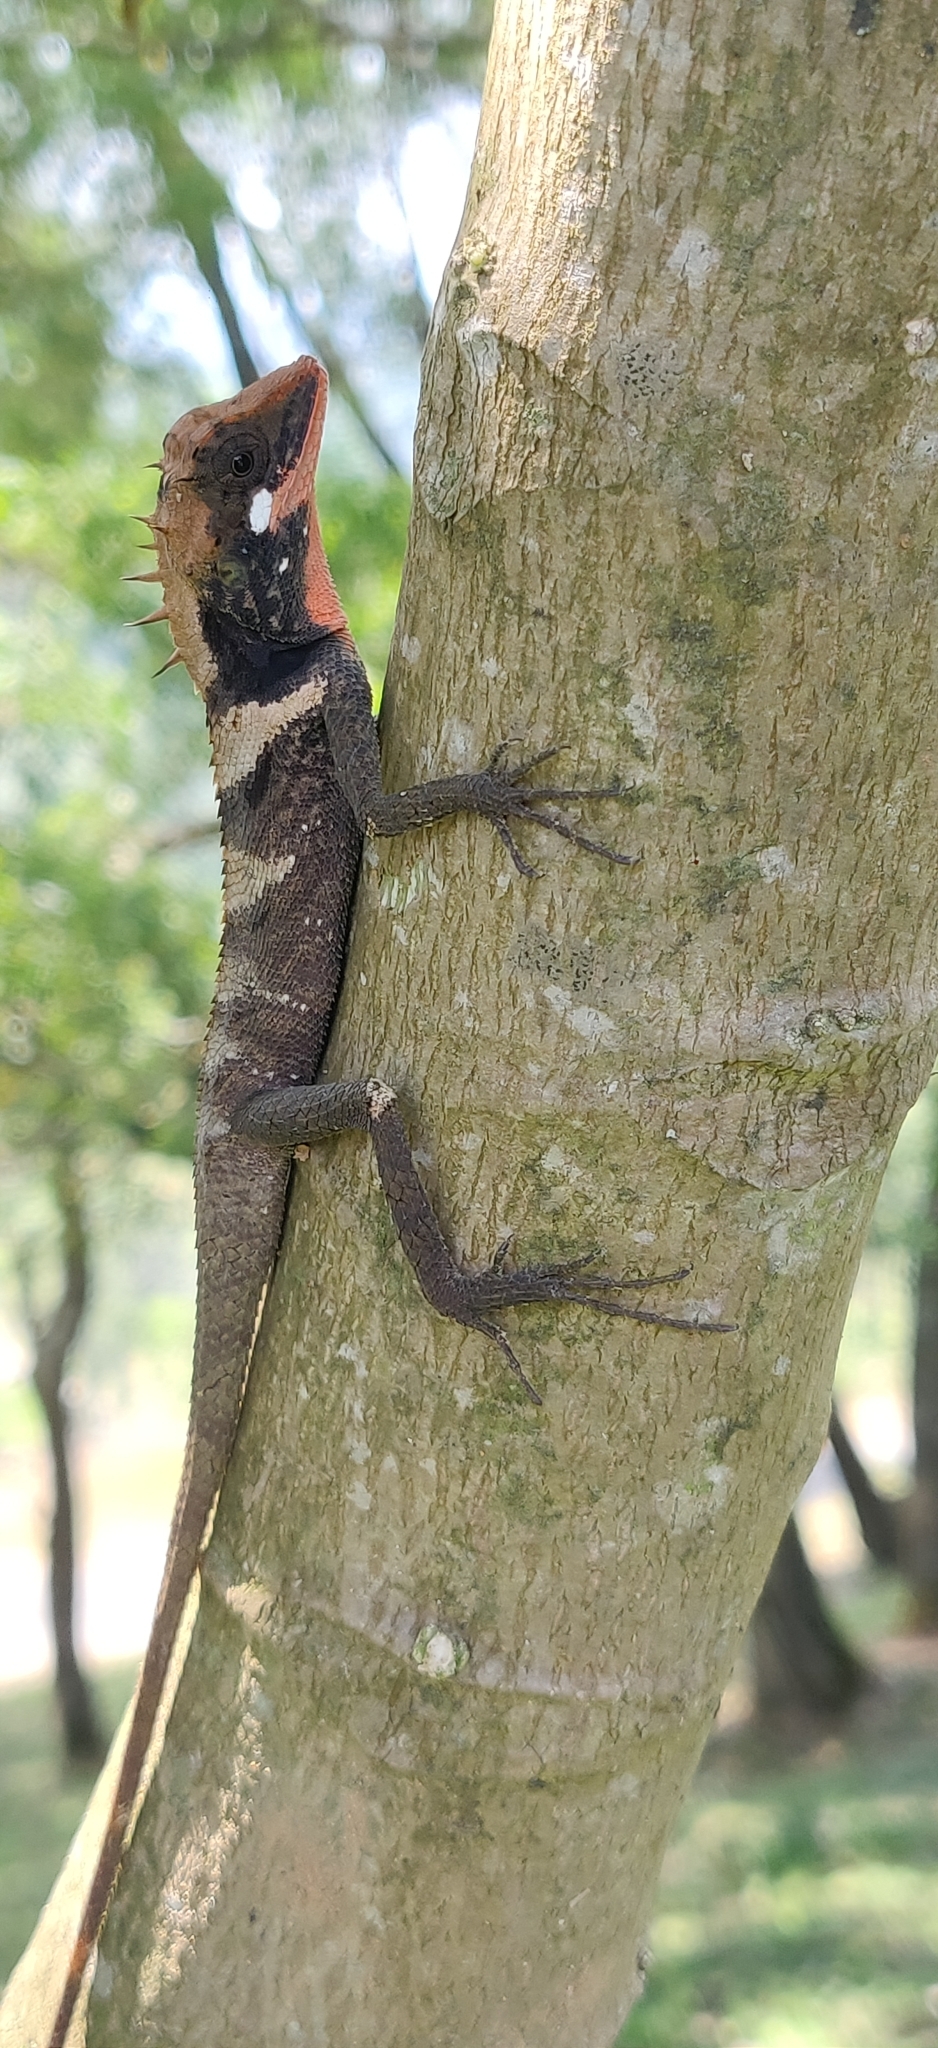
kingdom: Animalia
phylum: Chordata
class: Squamata
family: Agamidae
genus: Monilesaurus
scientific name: Monilesaurus ellioti
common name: Elliot's forest lizard
